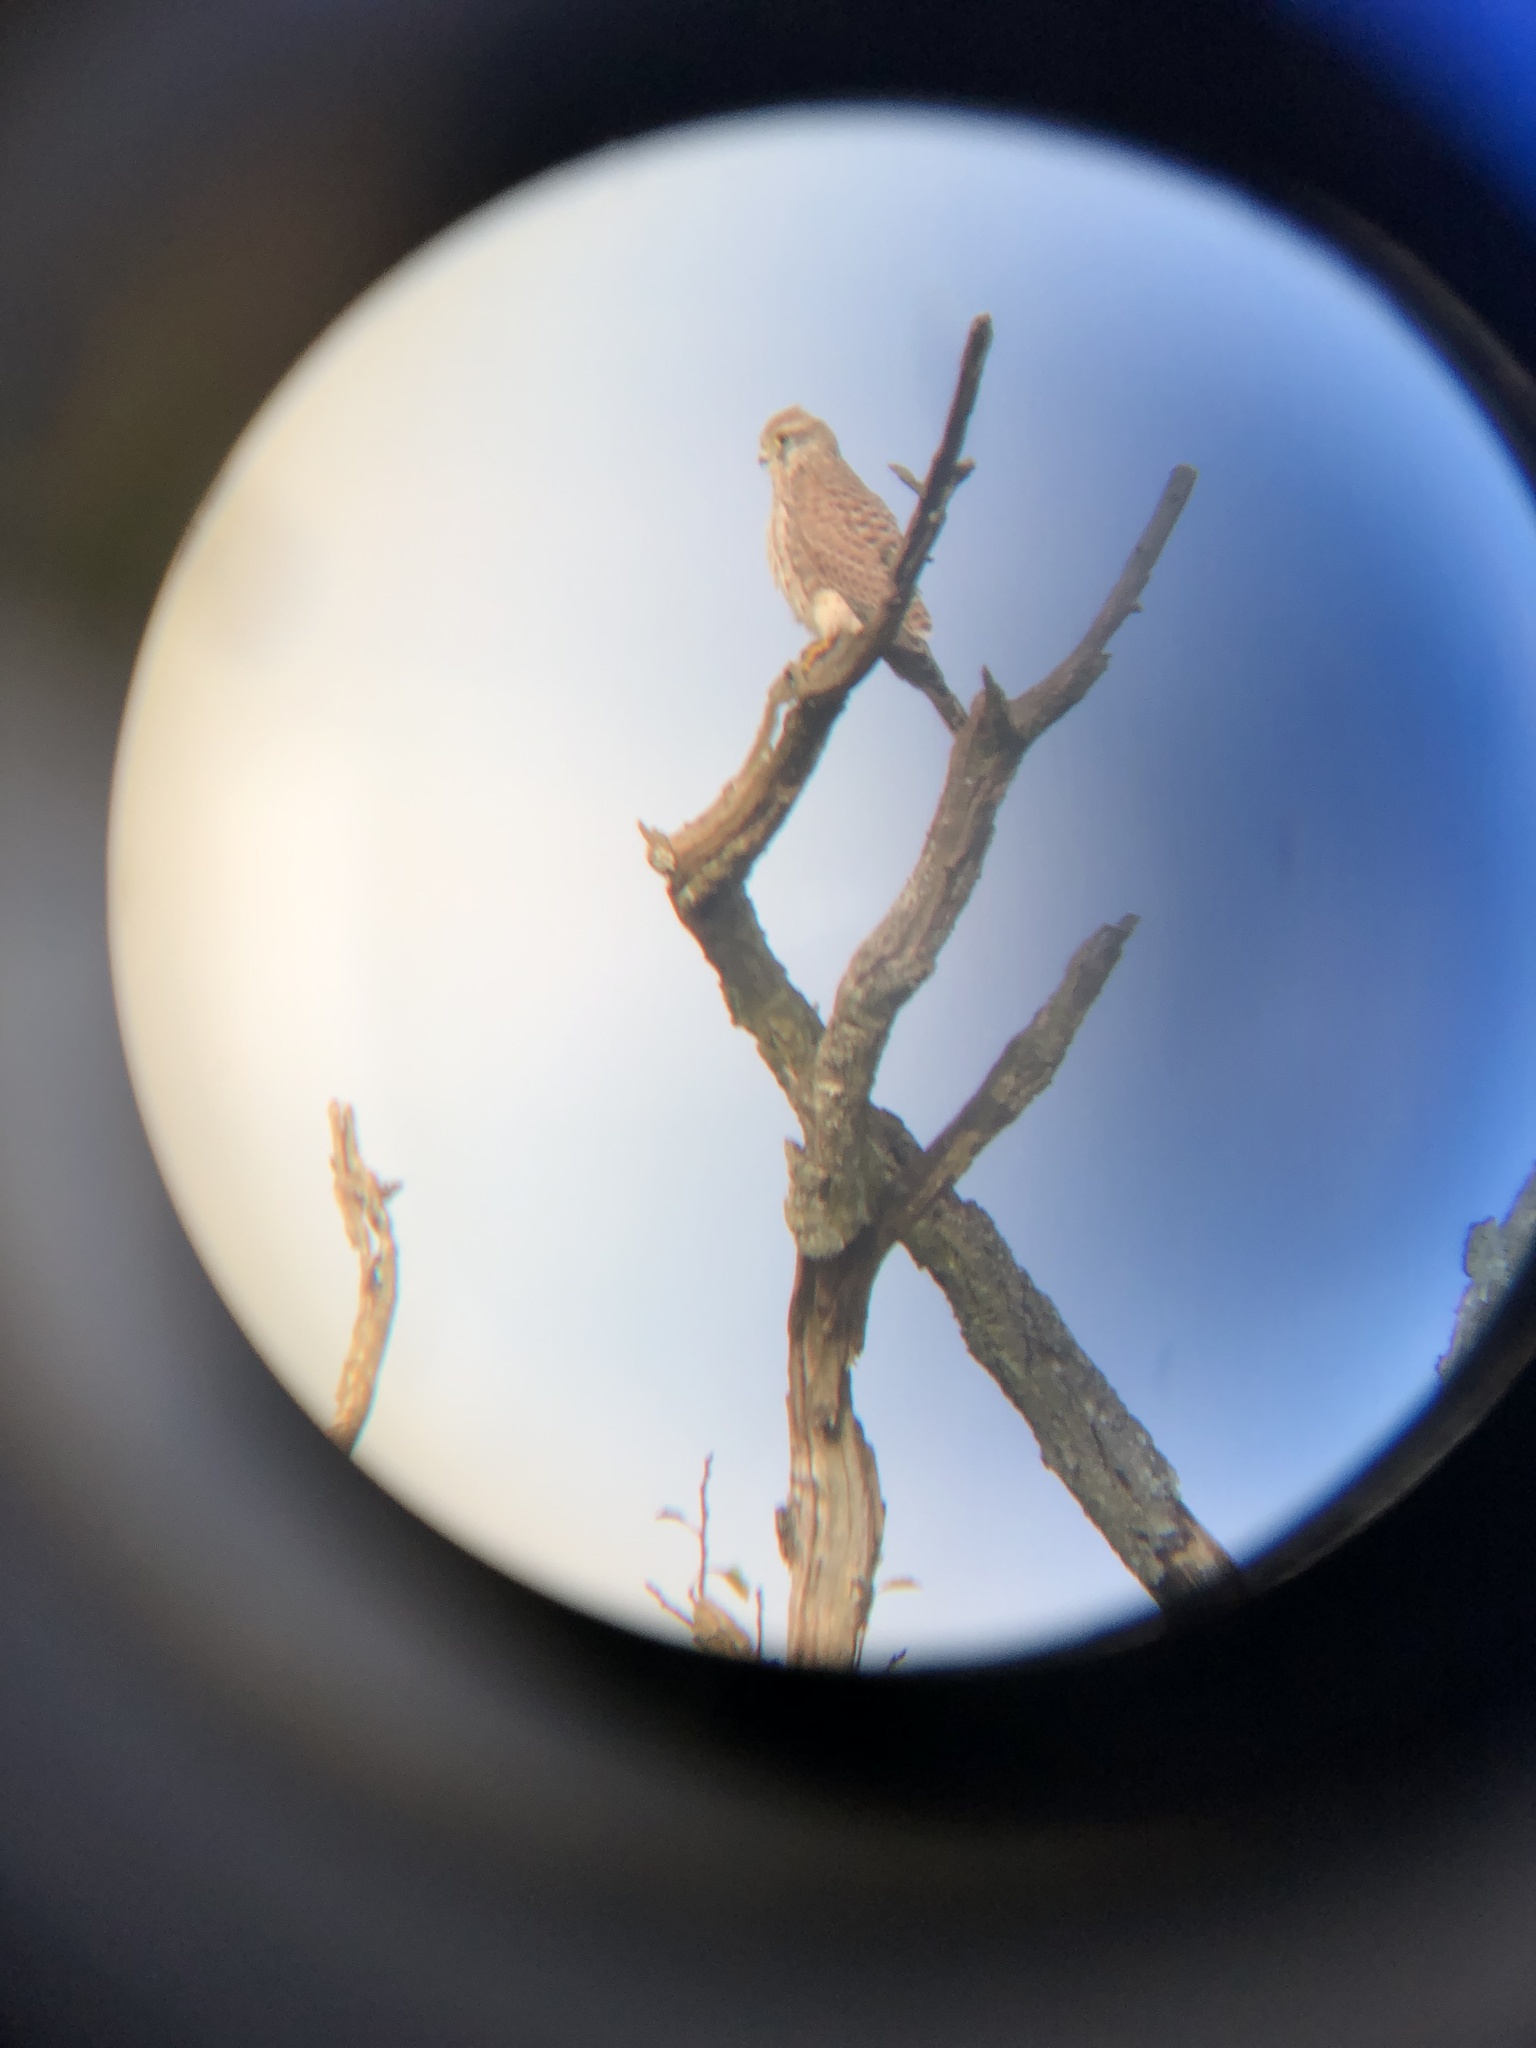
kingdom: Animalia
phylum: Chordata
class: Aves
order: Falconiformes
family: Falconidae
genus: Falco
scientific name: Falco tinnunculus
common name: Common kestrel
